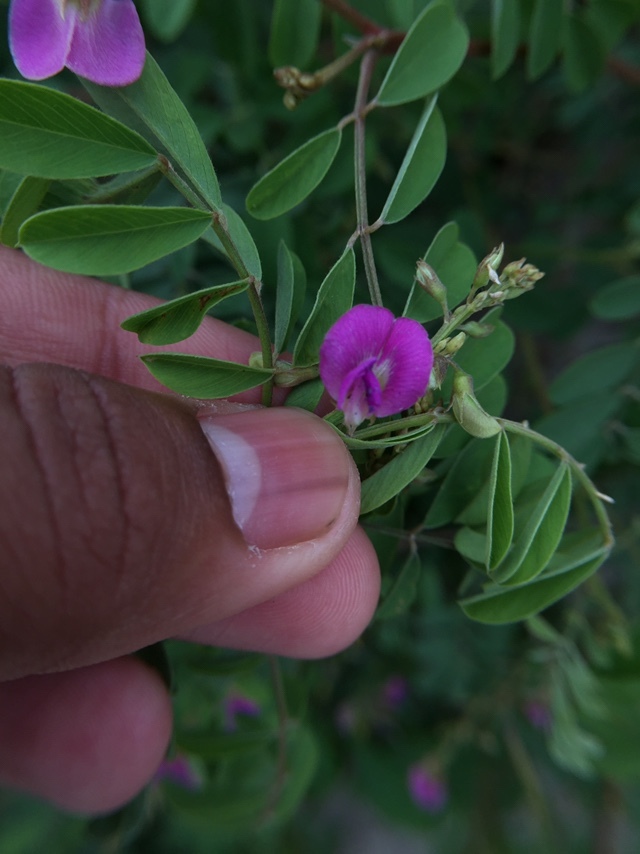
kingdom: Plantae
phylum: Tracheophyta
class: Magnoliopsida
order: Fabales
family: Fabaceae
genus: Tephrosia
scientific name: Tephrosia purpurea
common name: Fishpoison
